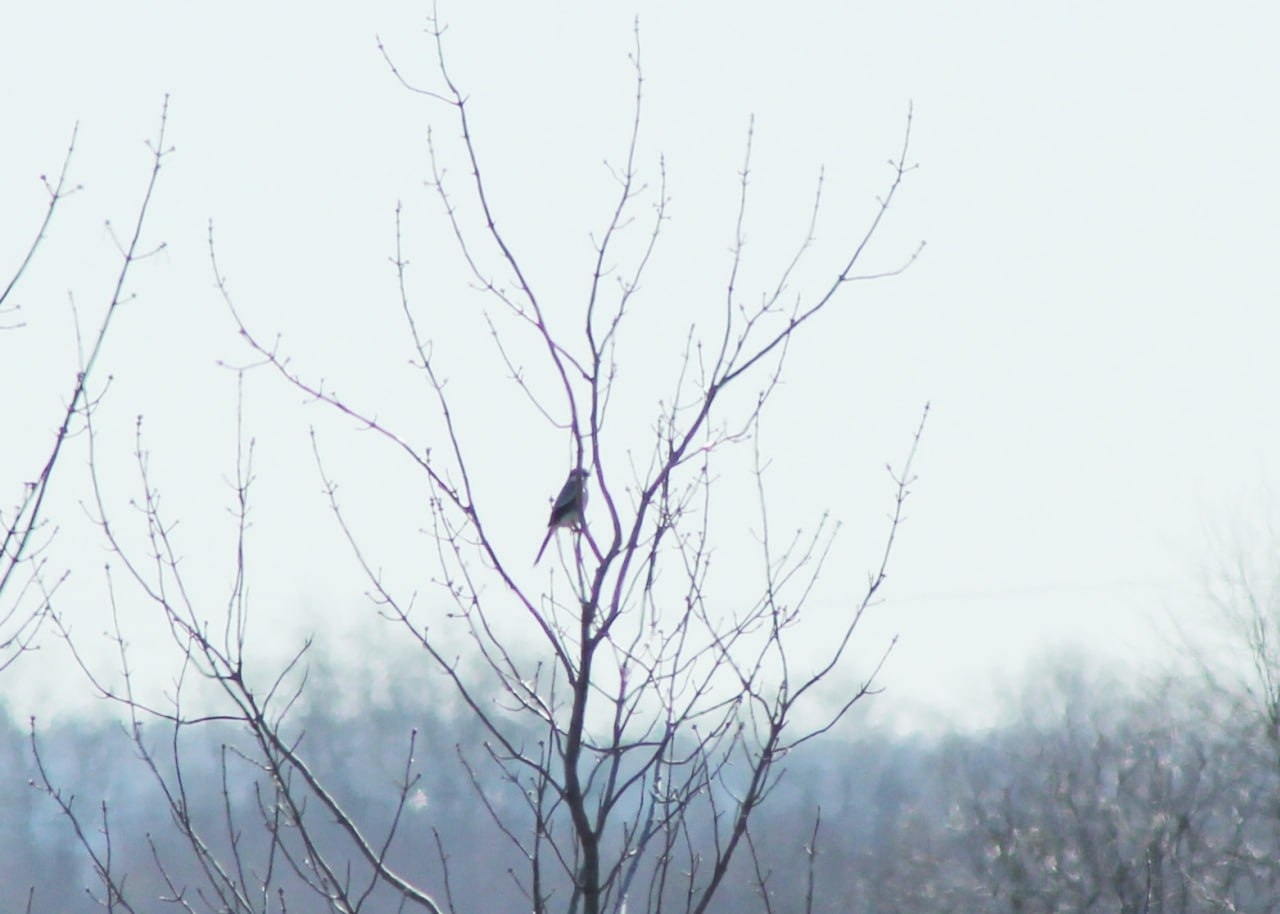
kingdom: Animalia
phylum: Chordata
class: Aves
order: Passeriformes
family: Laniidae
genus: Lanius
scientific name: Lanius excubitor
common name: Great grey shrike
